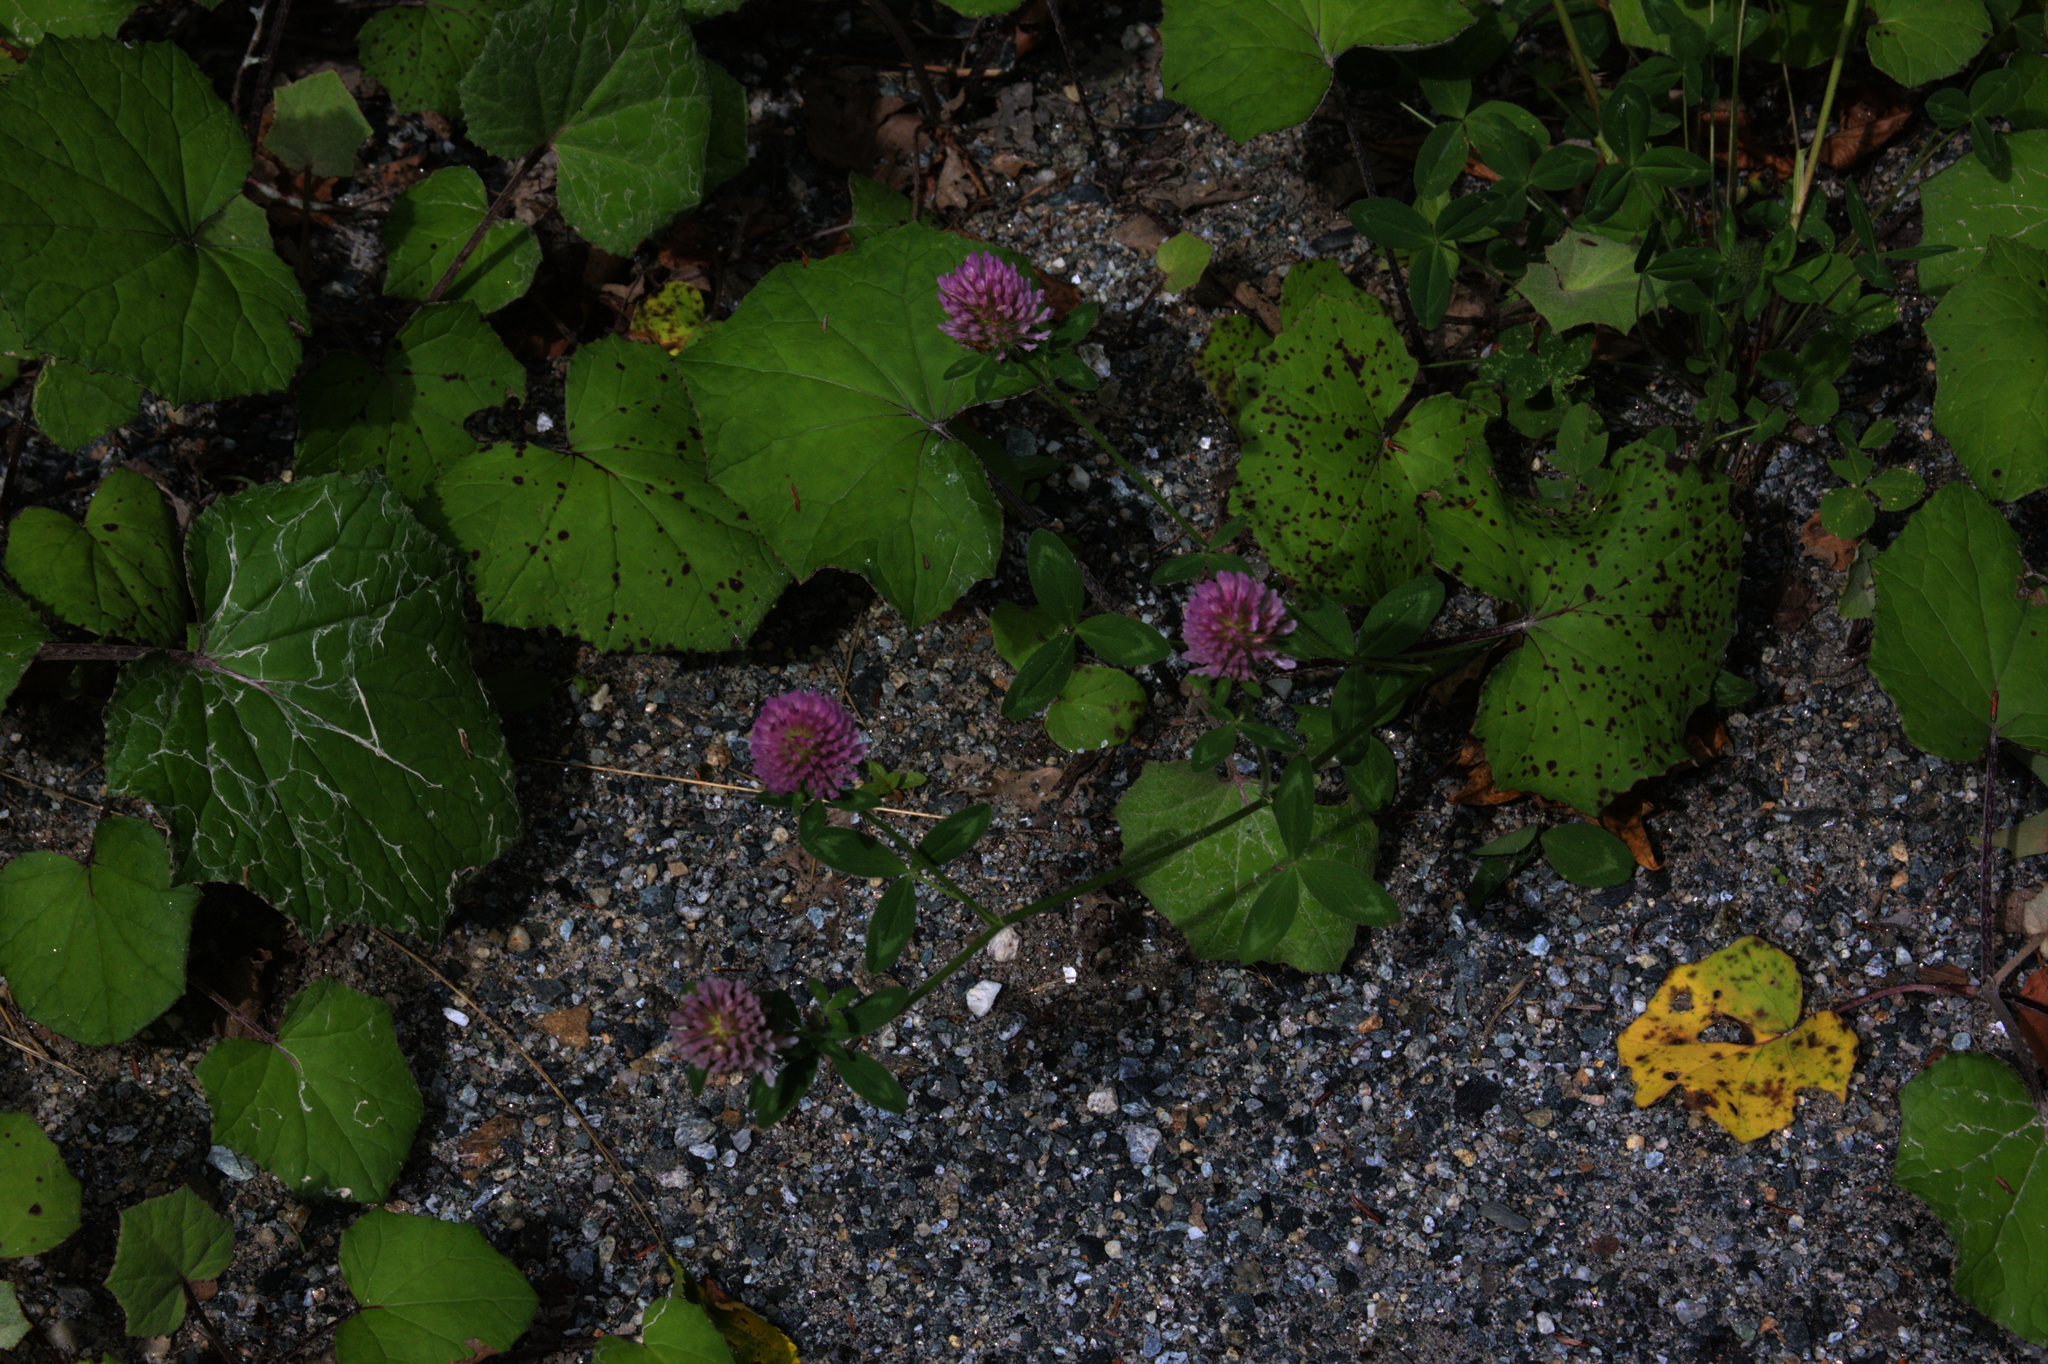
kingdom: Plantae
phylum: Tracheophyta
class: Magnoliopsida
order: Fabales
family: Fabaceae
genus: Trifolium
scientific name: Trifolium pratense
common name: Red clover
